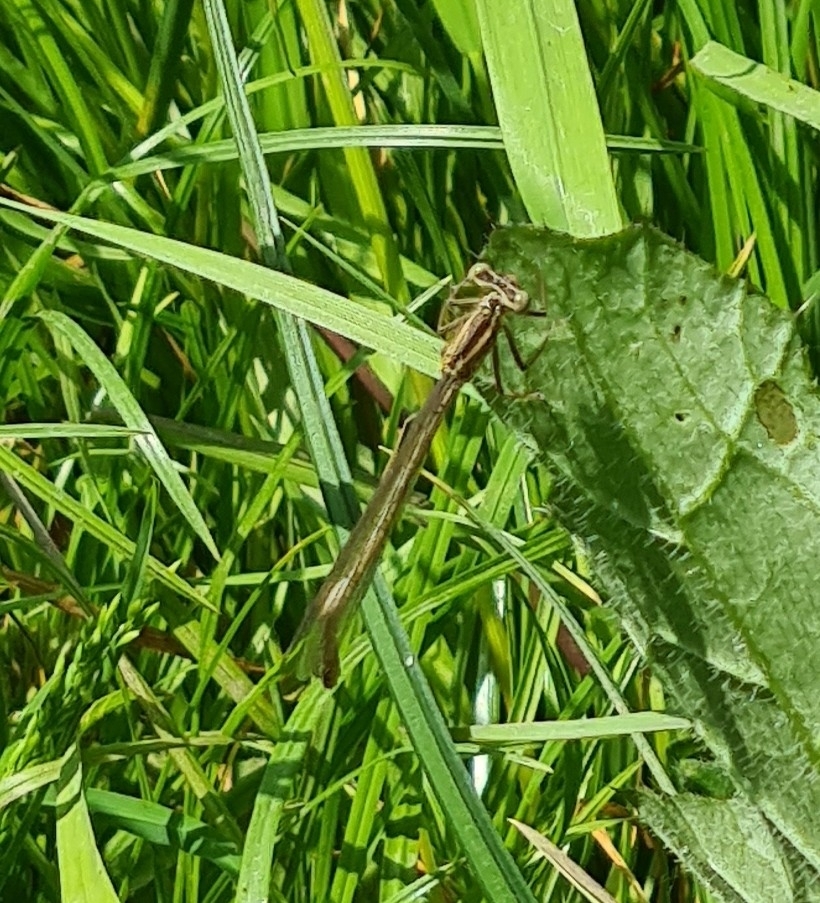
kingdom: Animalia
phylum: Arthropoda
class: Insecta
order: Odonata
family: Platycnemididae
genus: Platycnemis
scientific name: Platycnemis pennipes
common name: White-legged damselfly
